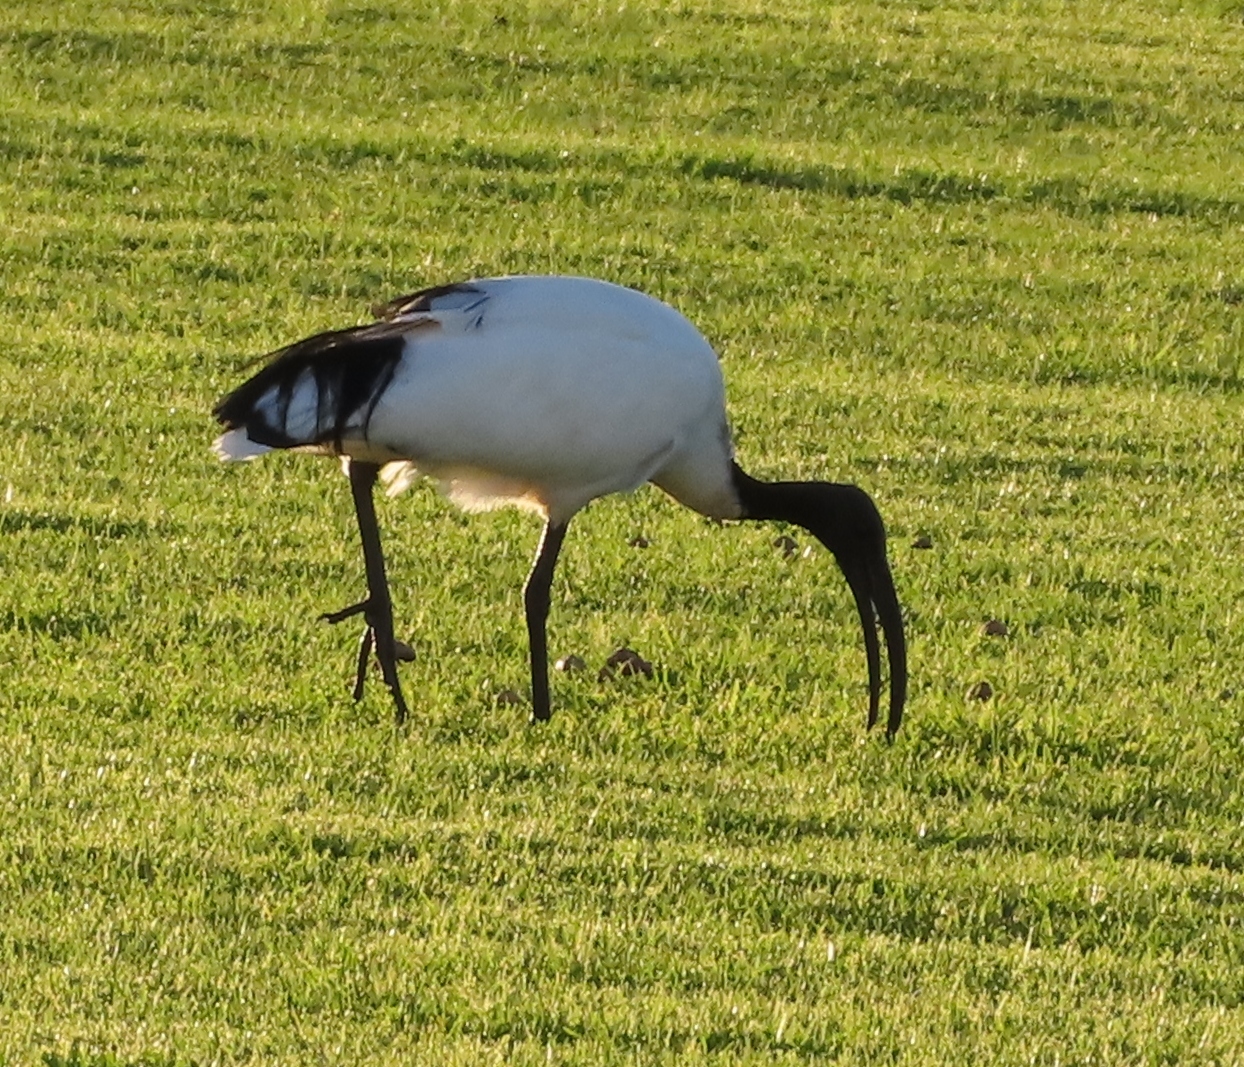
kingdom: Animalia
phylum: Chordata
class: Aves
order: Pelecaniformes
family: Threskiornithidae
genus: Threskiornis
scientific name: Threskiornis aethiopicus
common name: Sacred ibis
